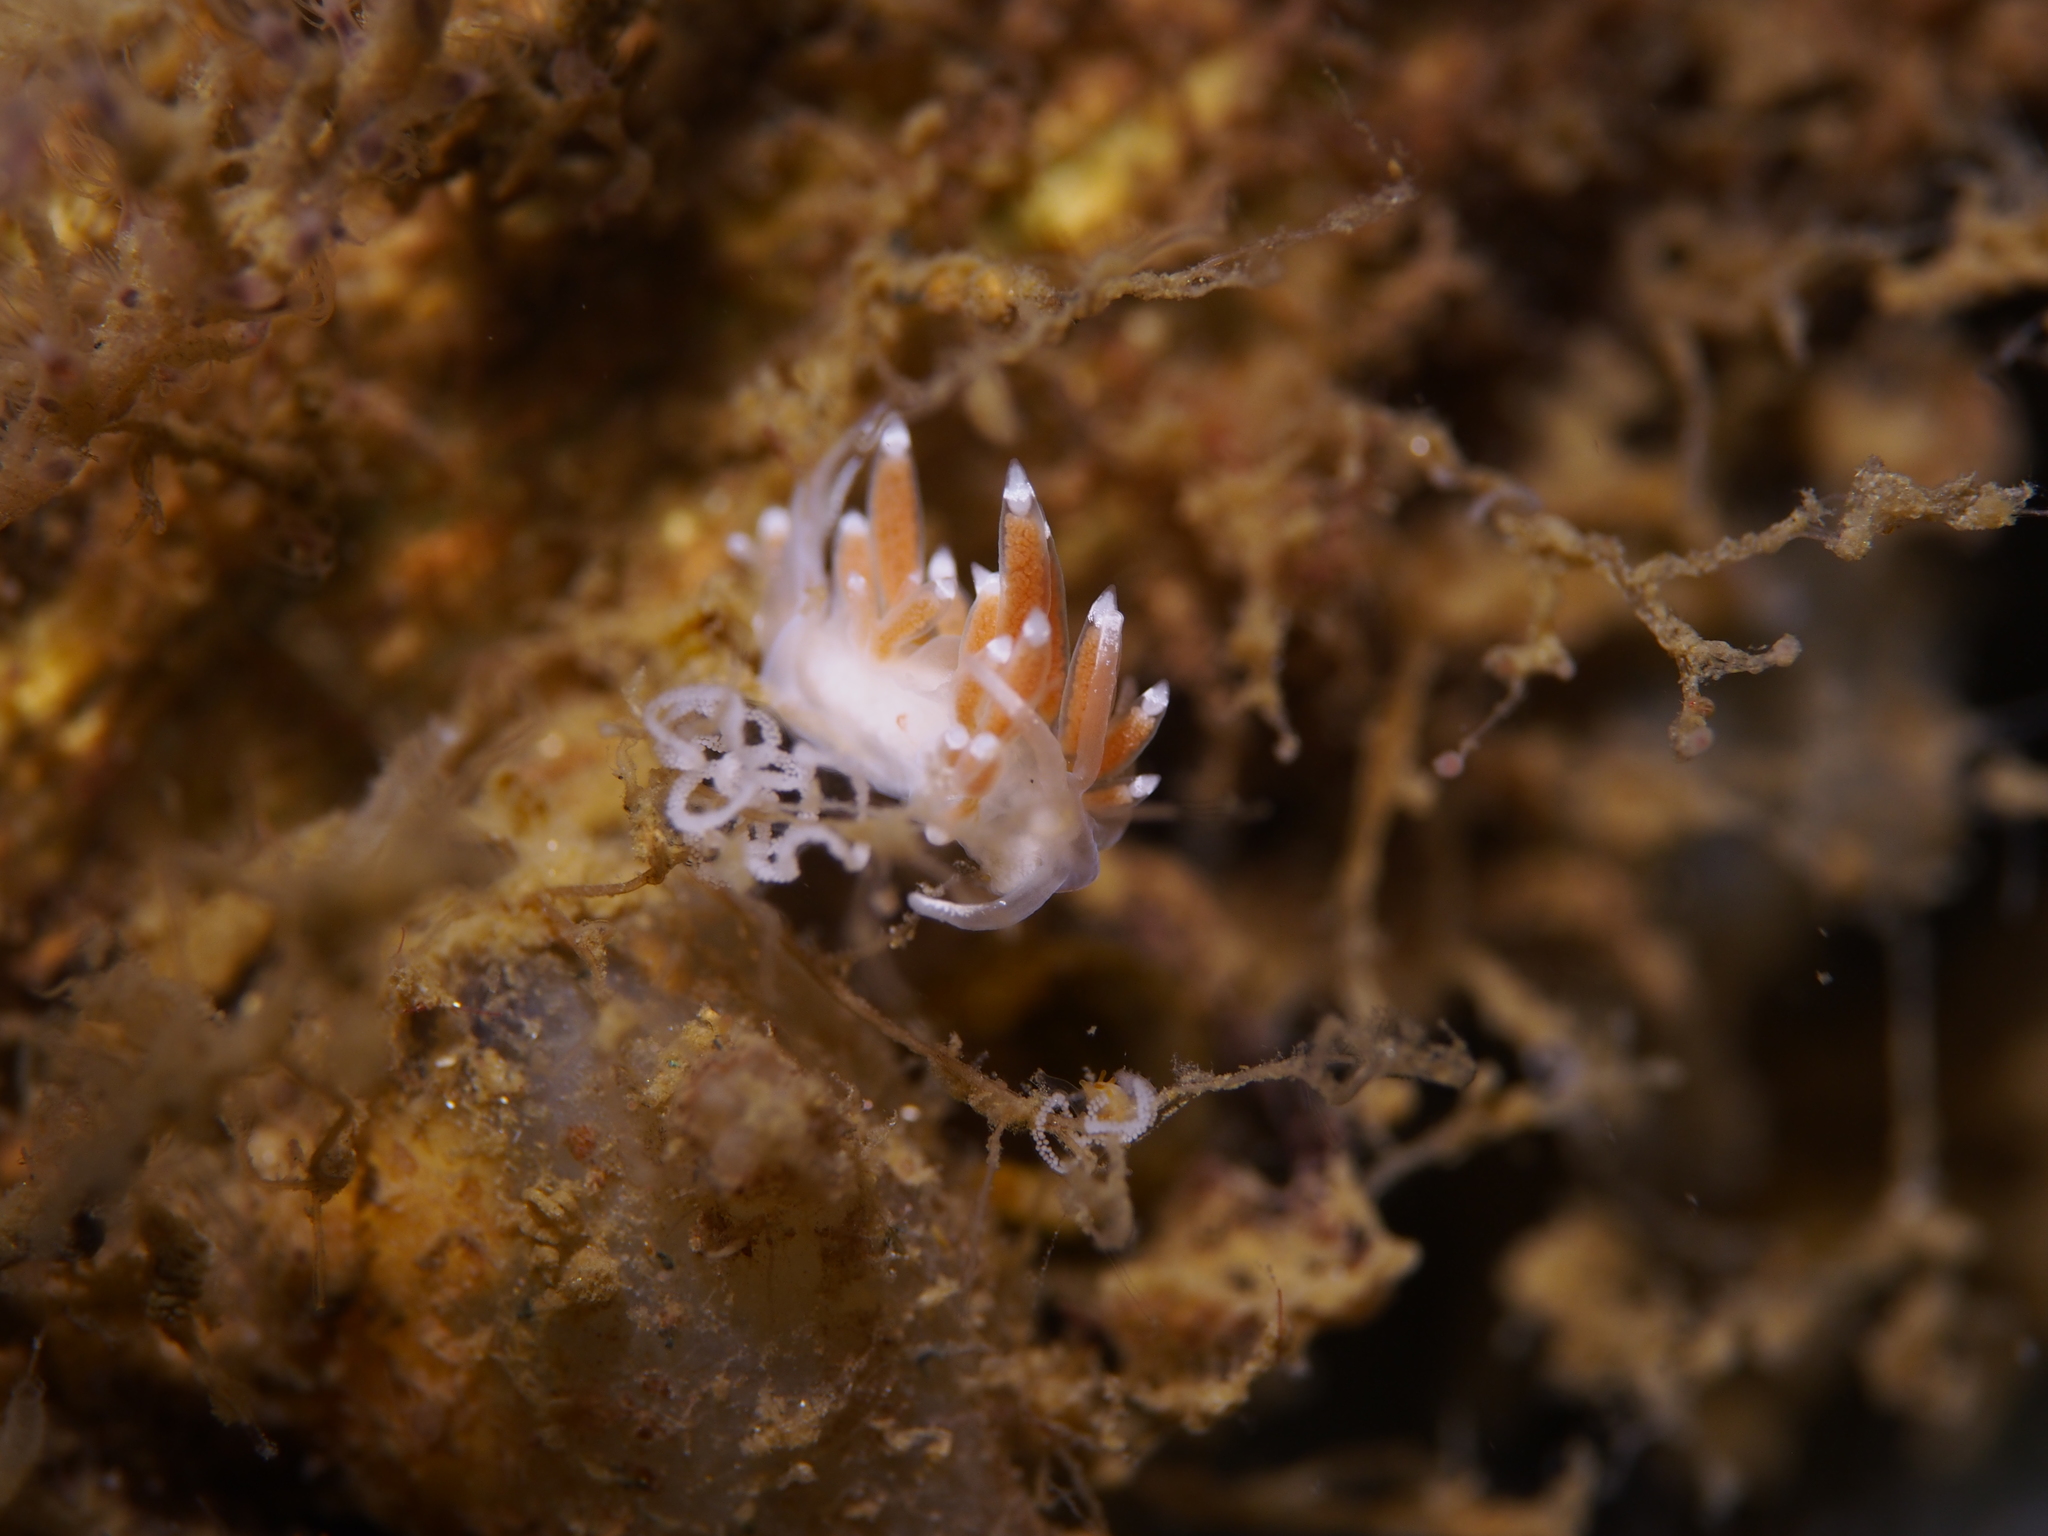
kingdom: Animalia
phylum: Mollusca
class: Gastropoda
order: Nudibranchia
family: Coryphellidae
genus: Coryphella
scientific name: Coryphella gracilis
